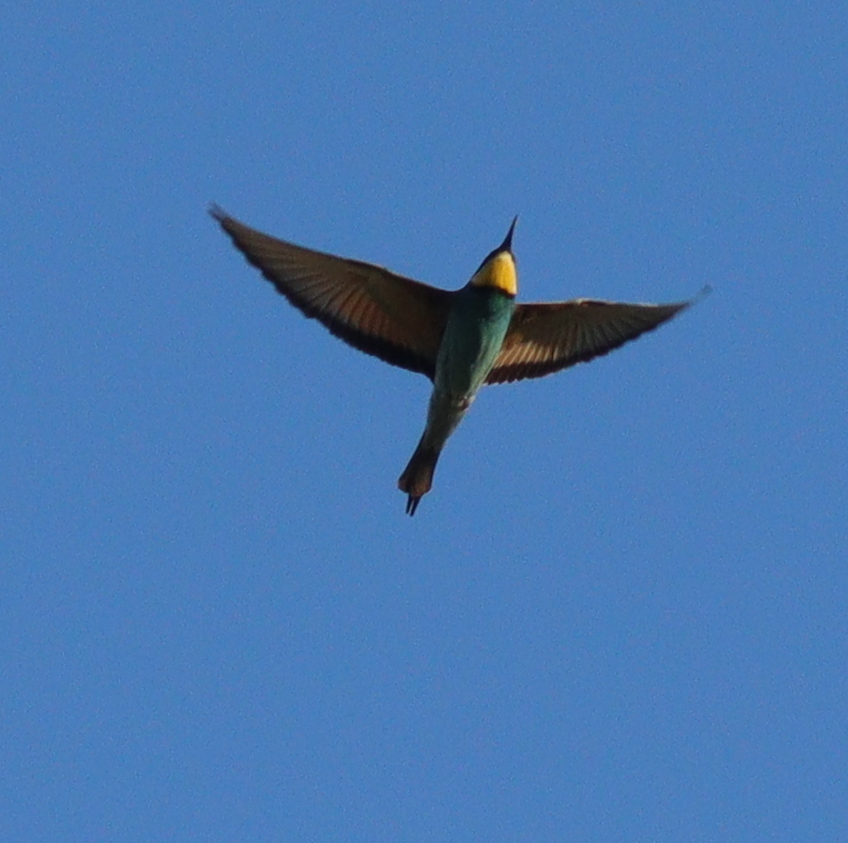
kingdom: Animalia
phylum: Chordata
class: Aves
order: Coraciiformes
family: Meropidae
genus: Merops
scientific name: Merops apiaster
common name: European bee-eater
